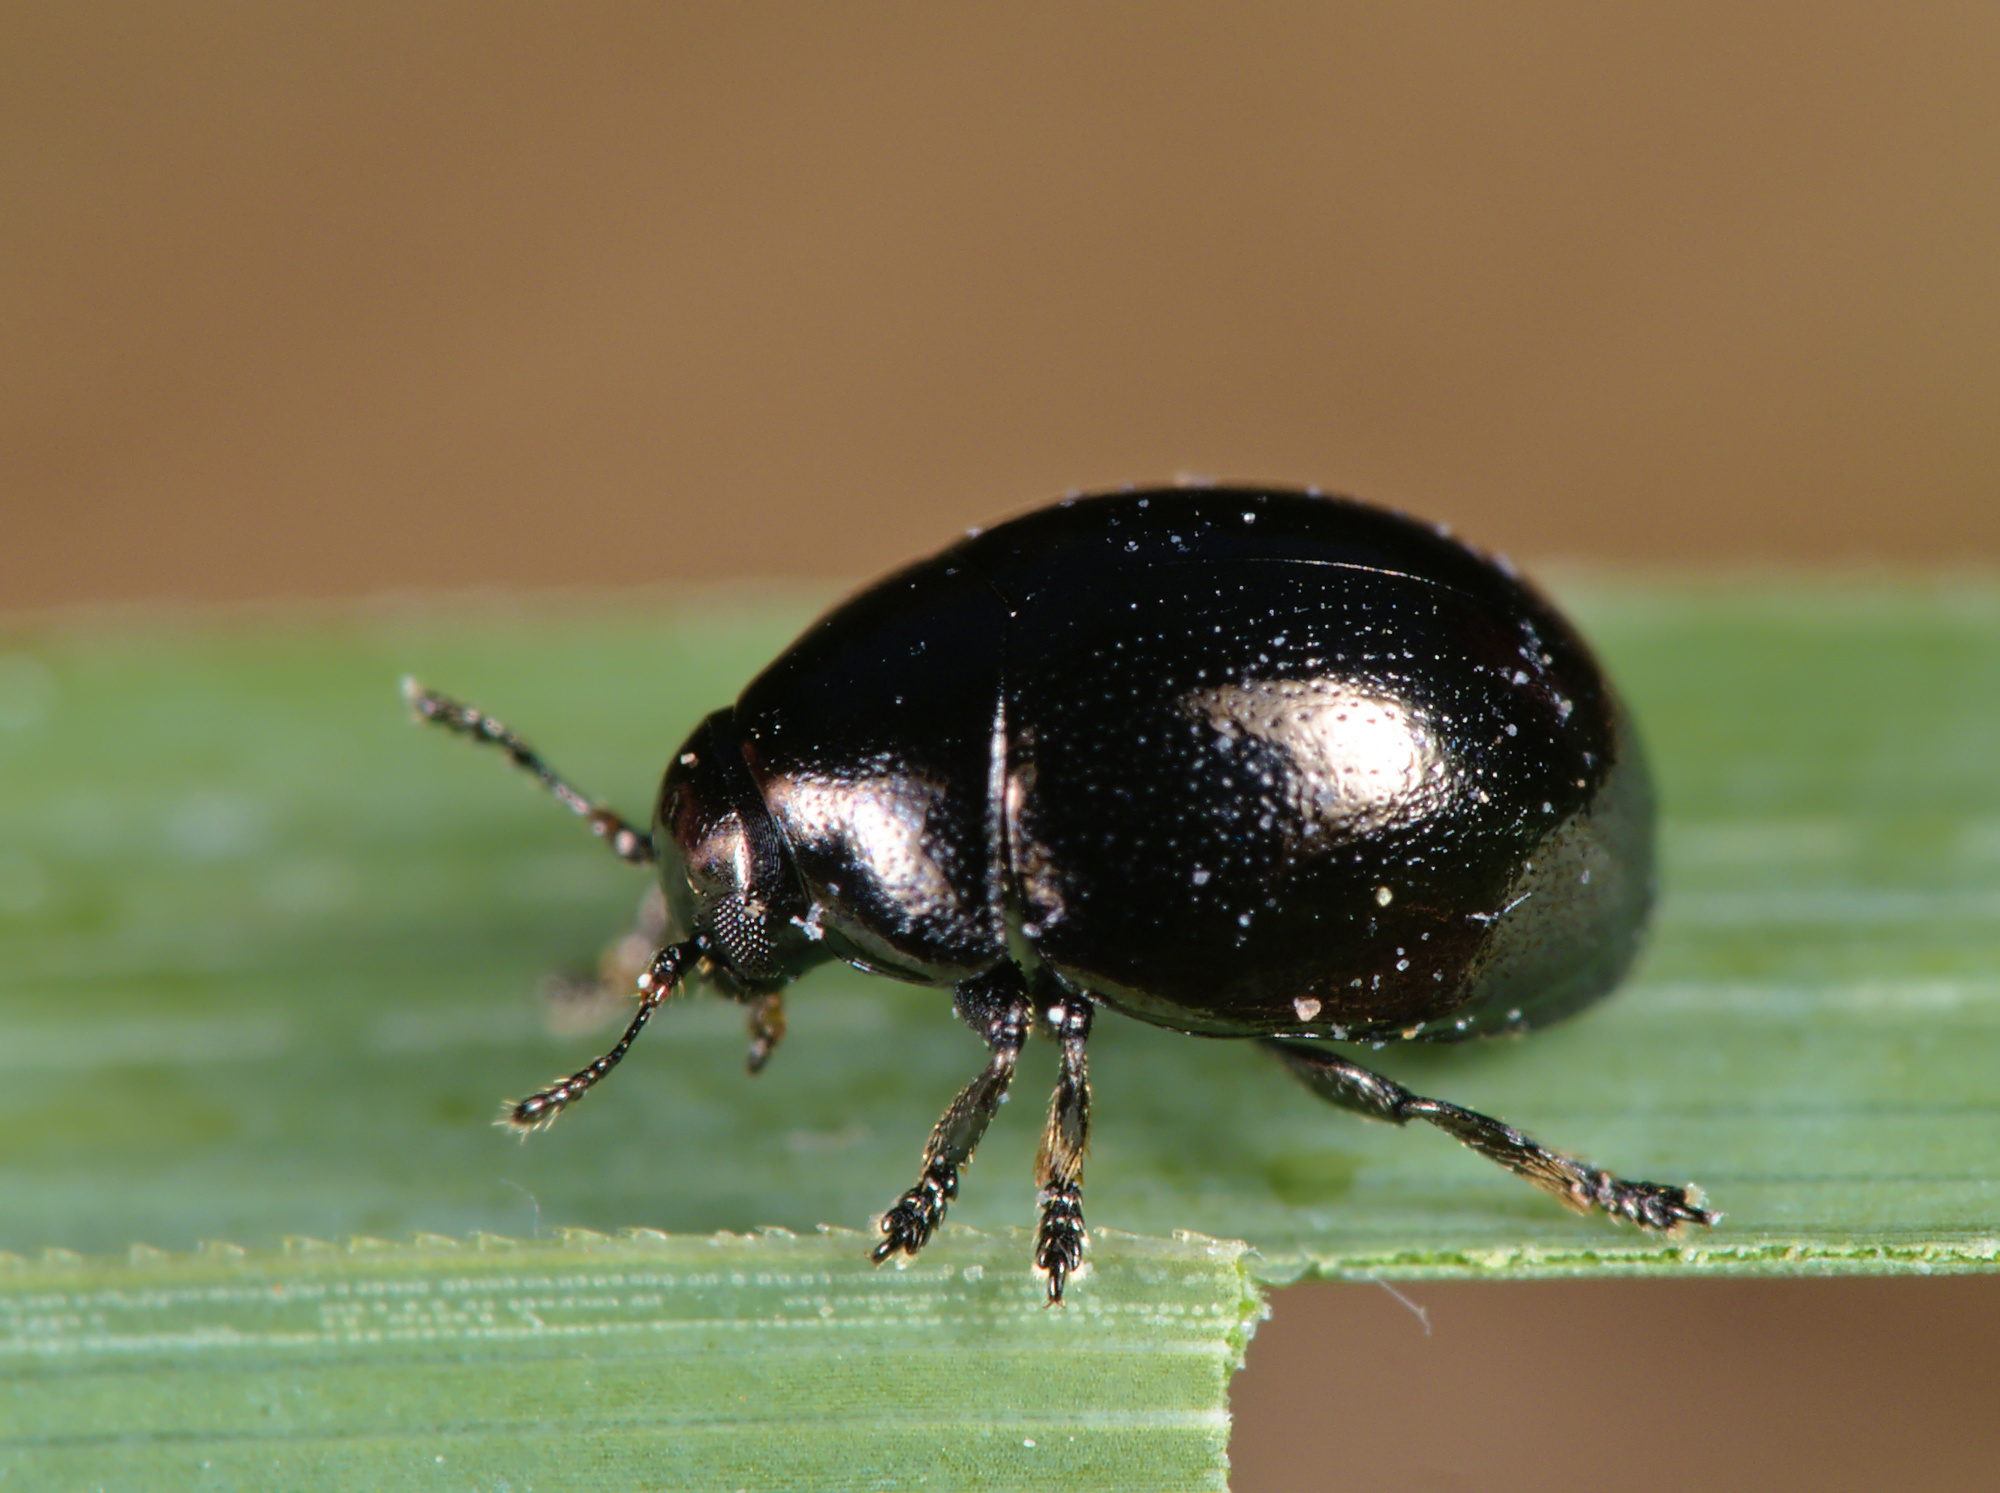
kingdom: Animalia
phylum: Arthropoda
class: Insecta
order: Coleoptera
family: Chrysomelidae
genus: Oomorphus
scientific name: Oomorphus concolor
